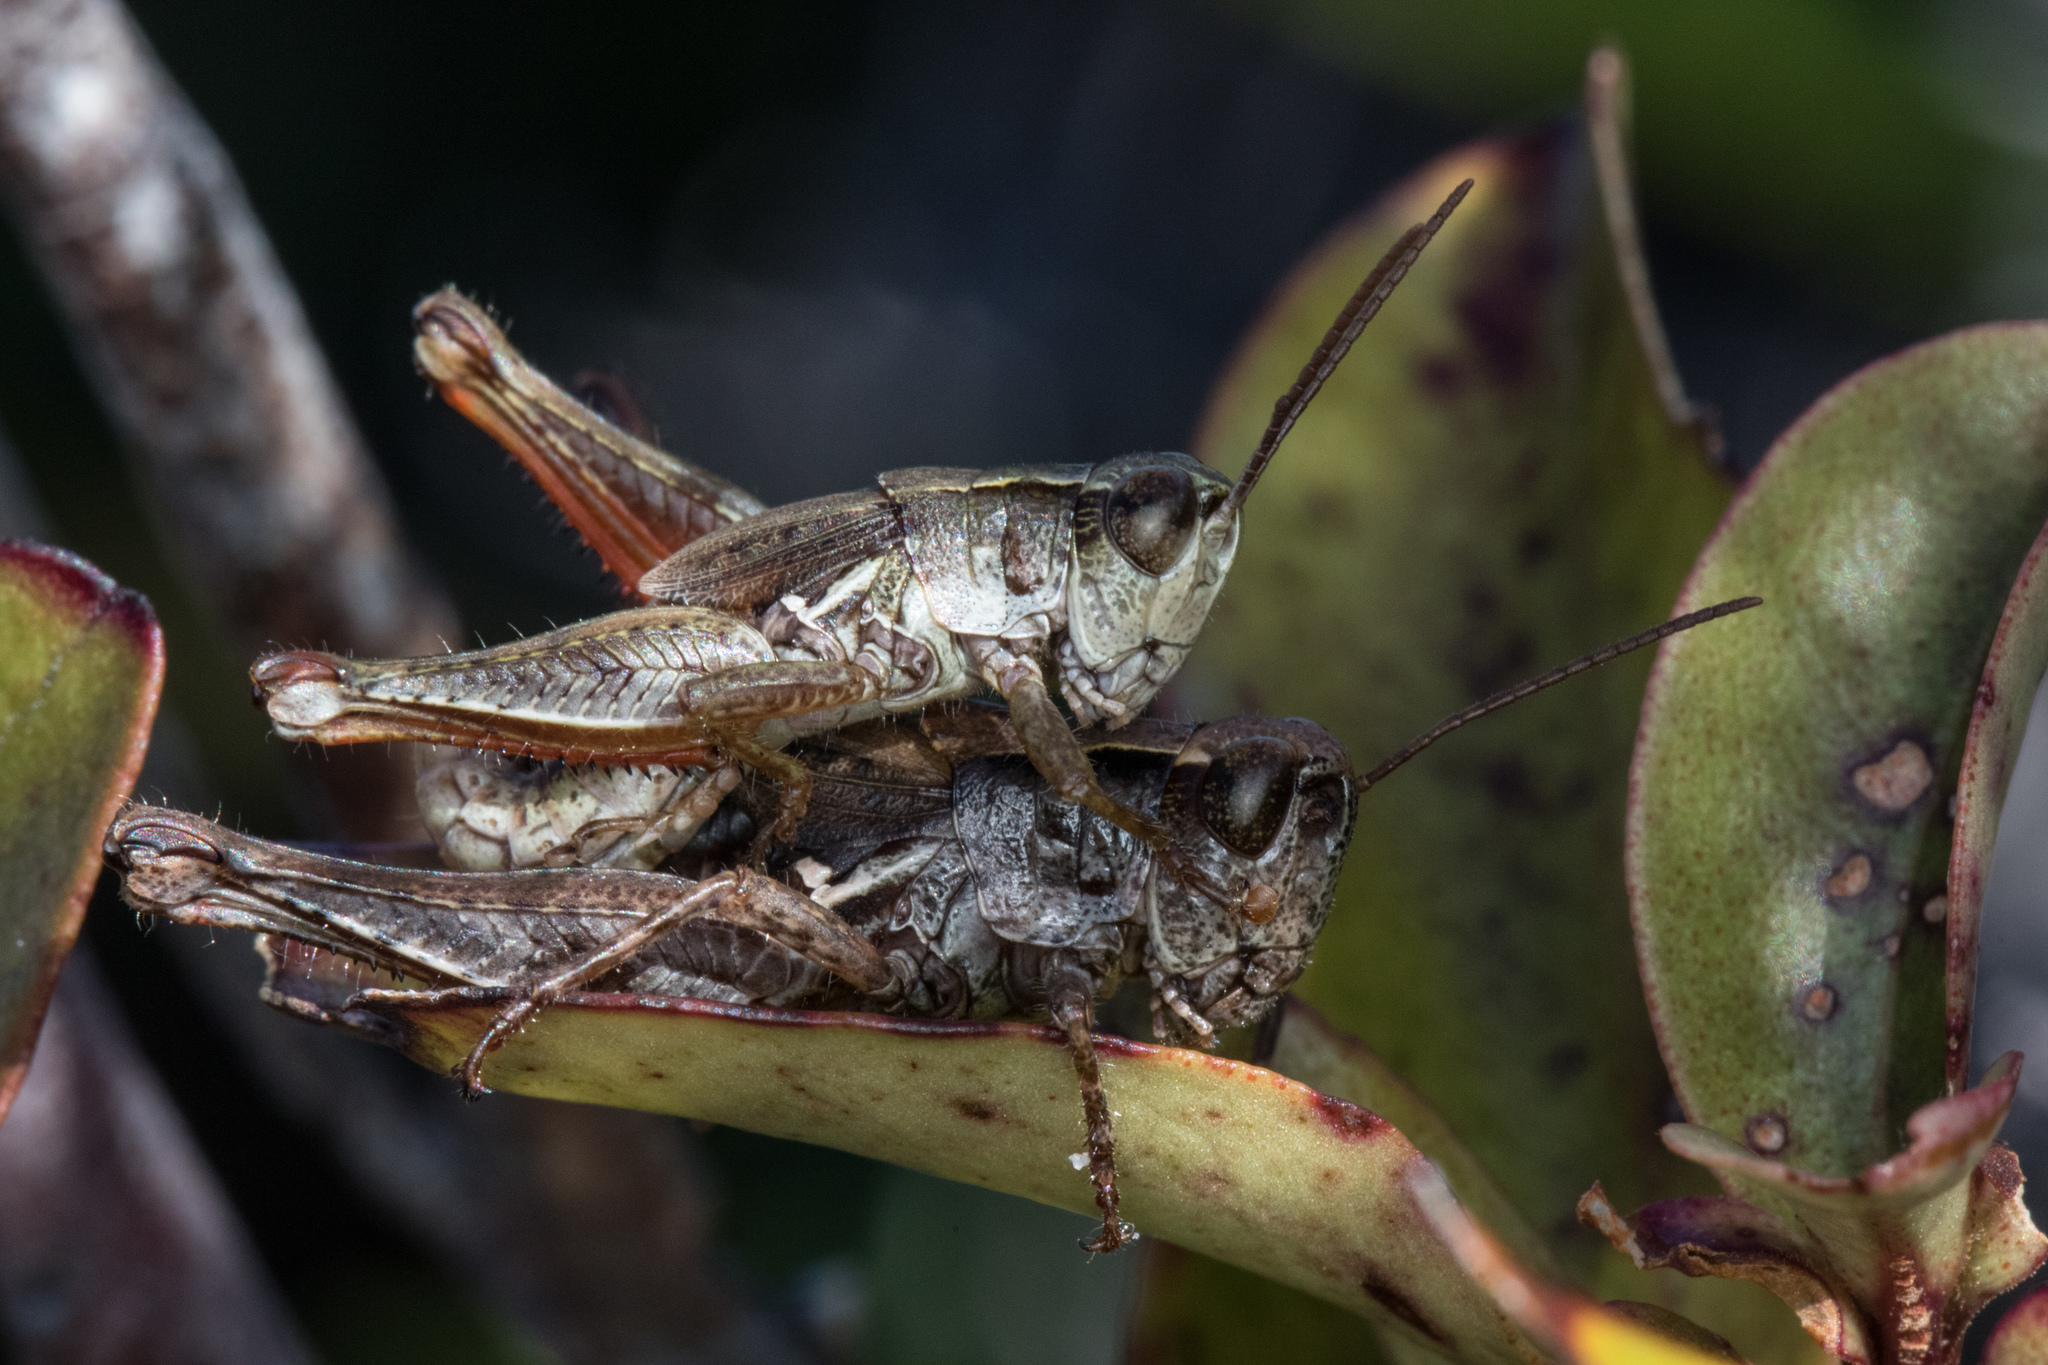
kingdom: Animalia
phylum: Arthropoda
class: Insecta
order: Orthoptera
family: Acrididae
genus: Phaulacridium
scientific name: Phaulacridium marginale
